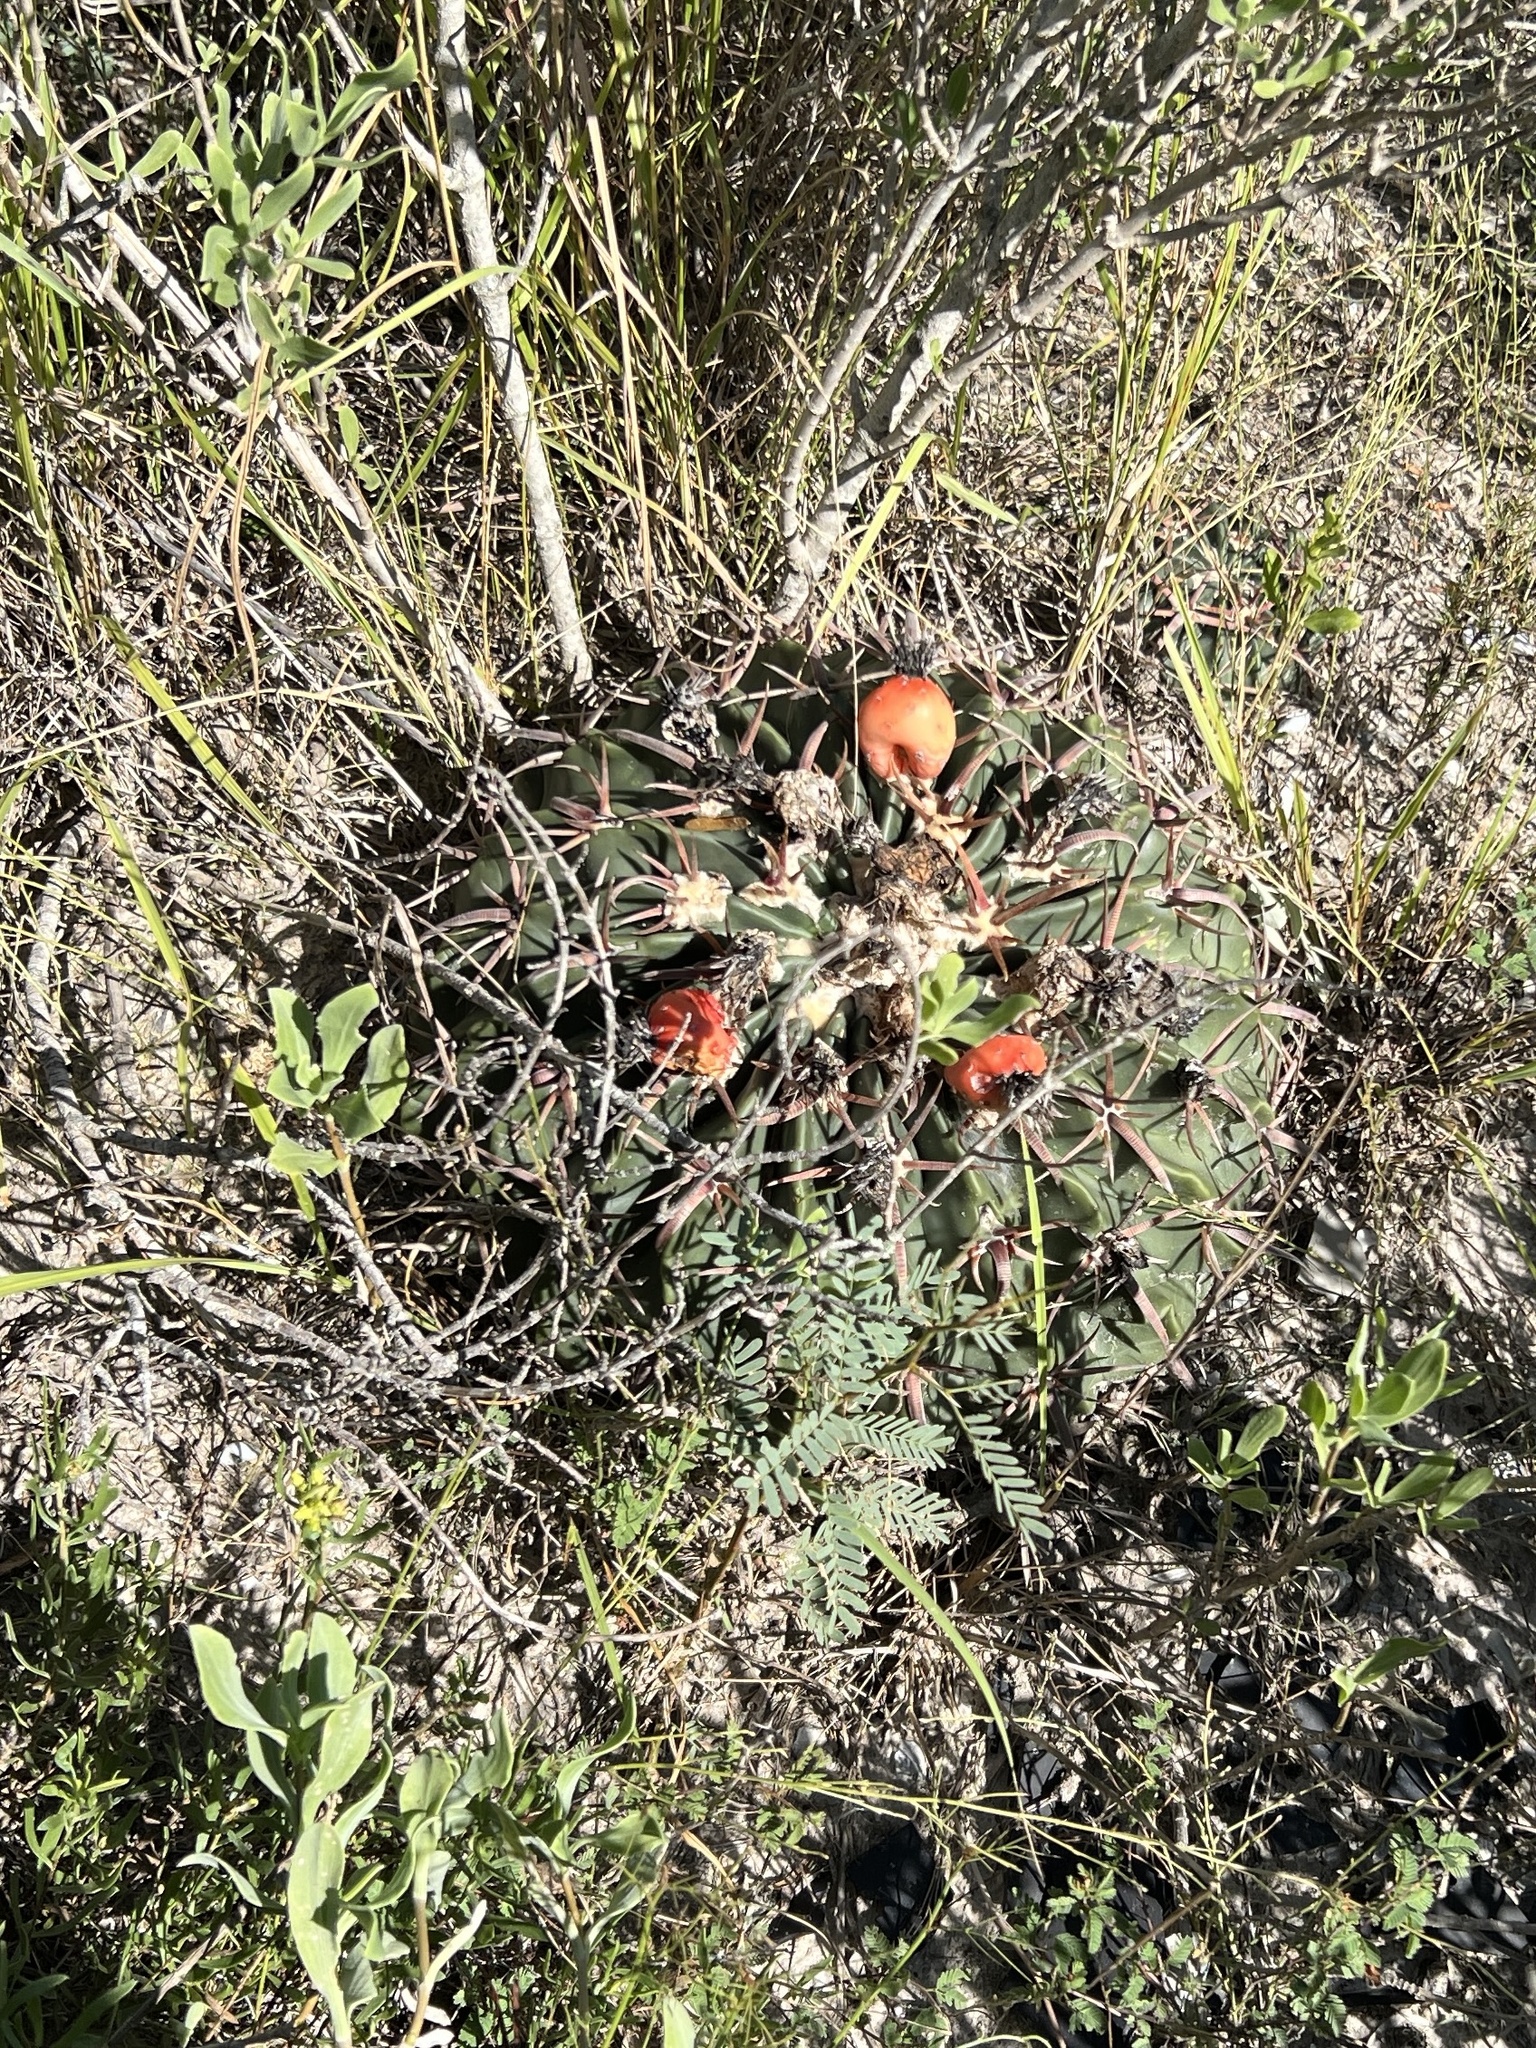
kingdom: Plantae
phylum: Tracheophyta
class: Magnoliopsida
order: Caryophyllales
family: Cactaceae
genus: Echinocactus
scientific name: Echinocactus texensis
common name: Devil's pincushion
